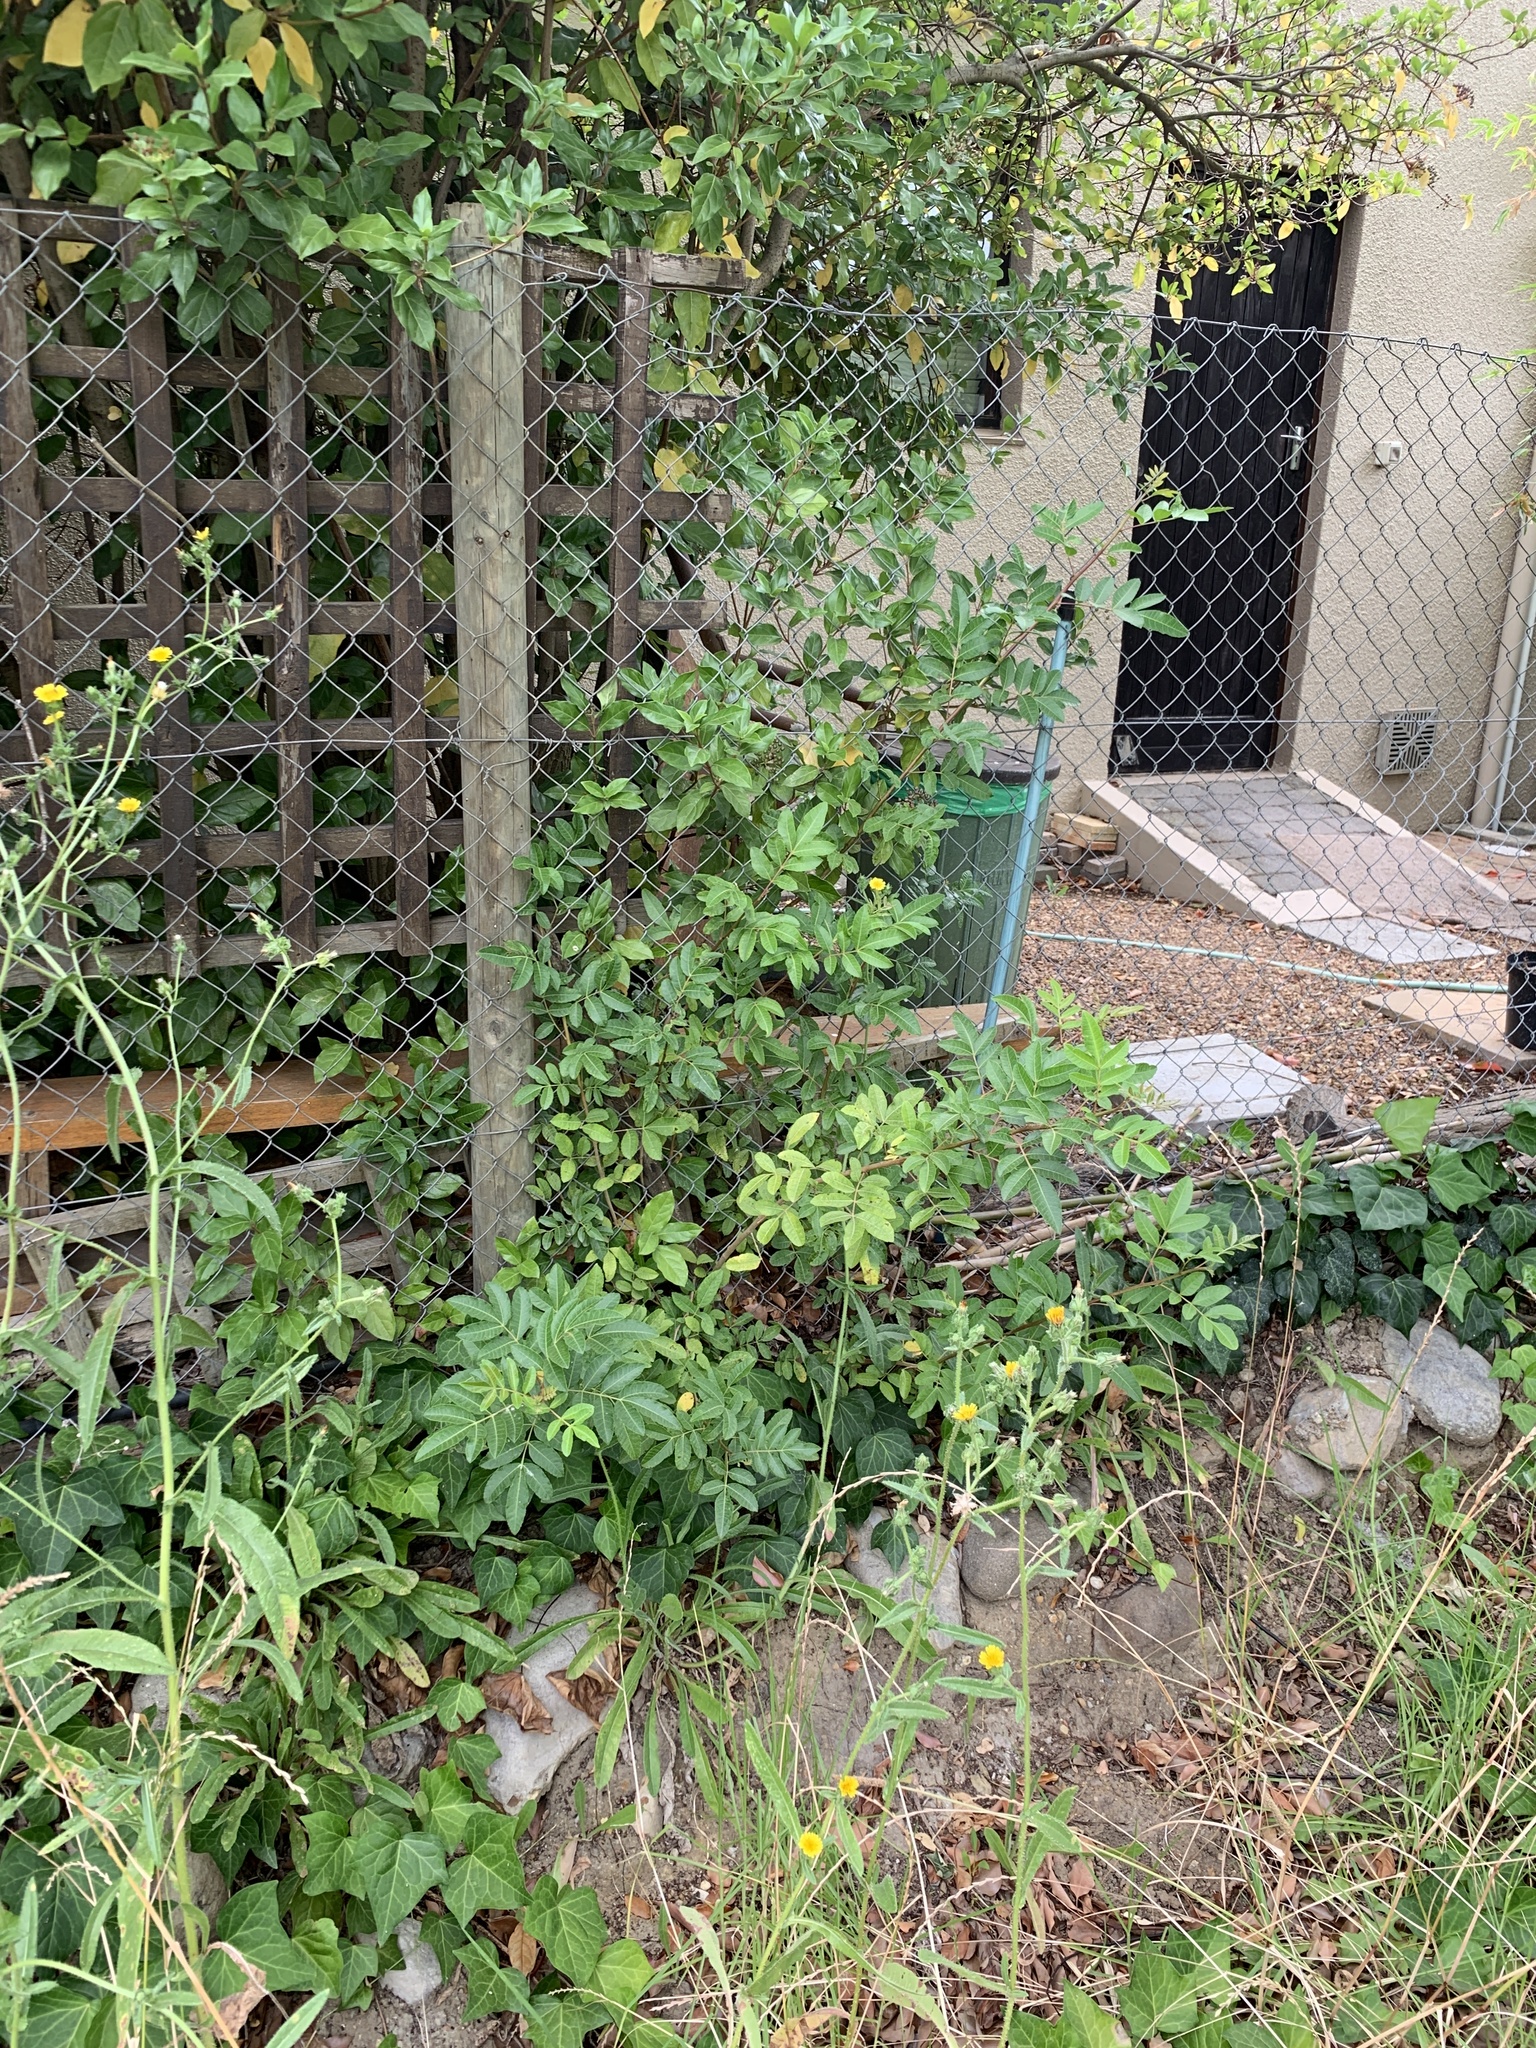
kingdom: Plantae
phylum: Tracheophyta
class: Magnoliopsida
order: Sapindales
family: Anacardiaceae
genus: Schinus
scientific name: Schinus terebinthifolia
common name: Brazilian peppertree
